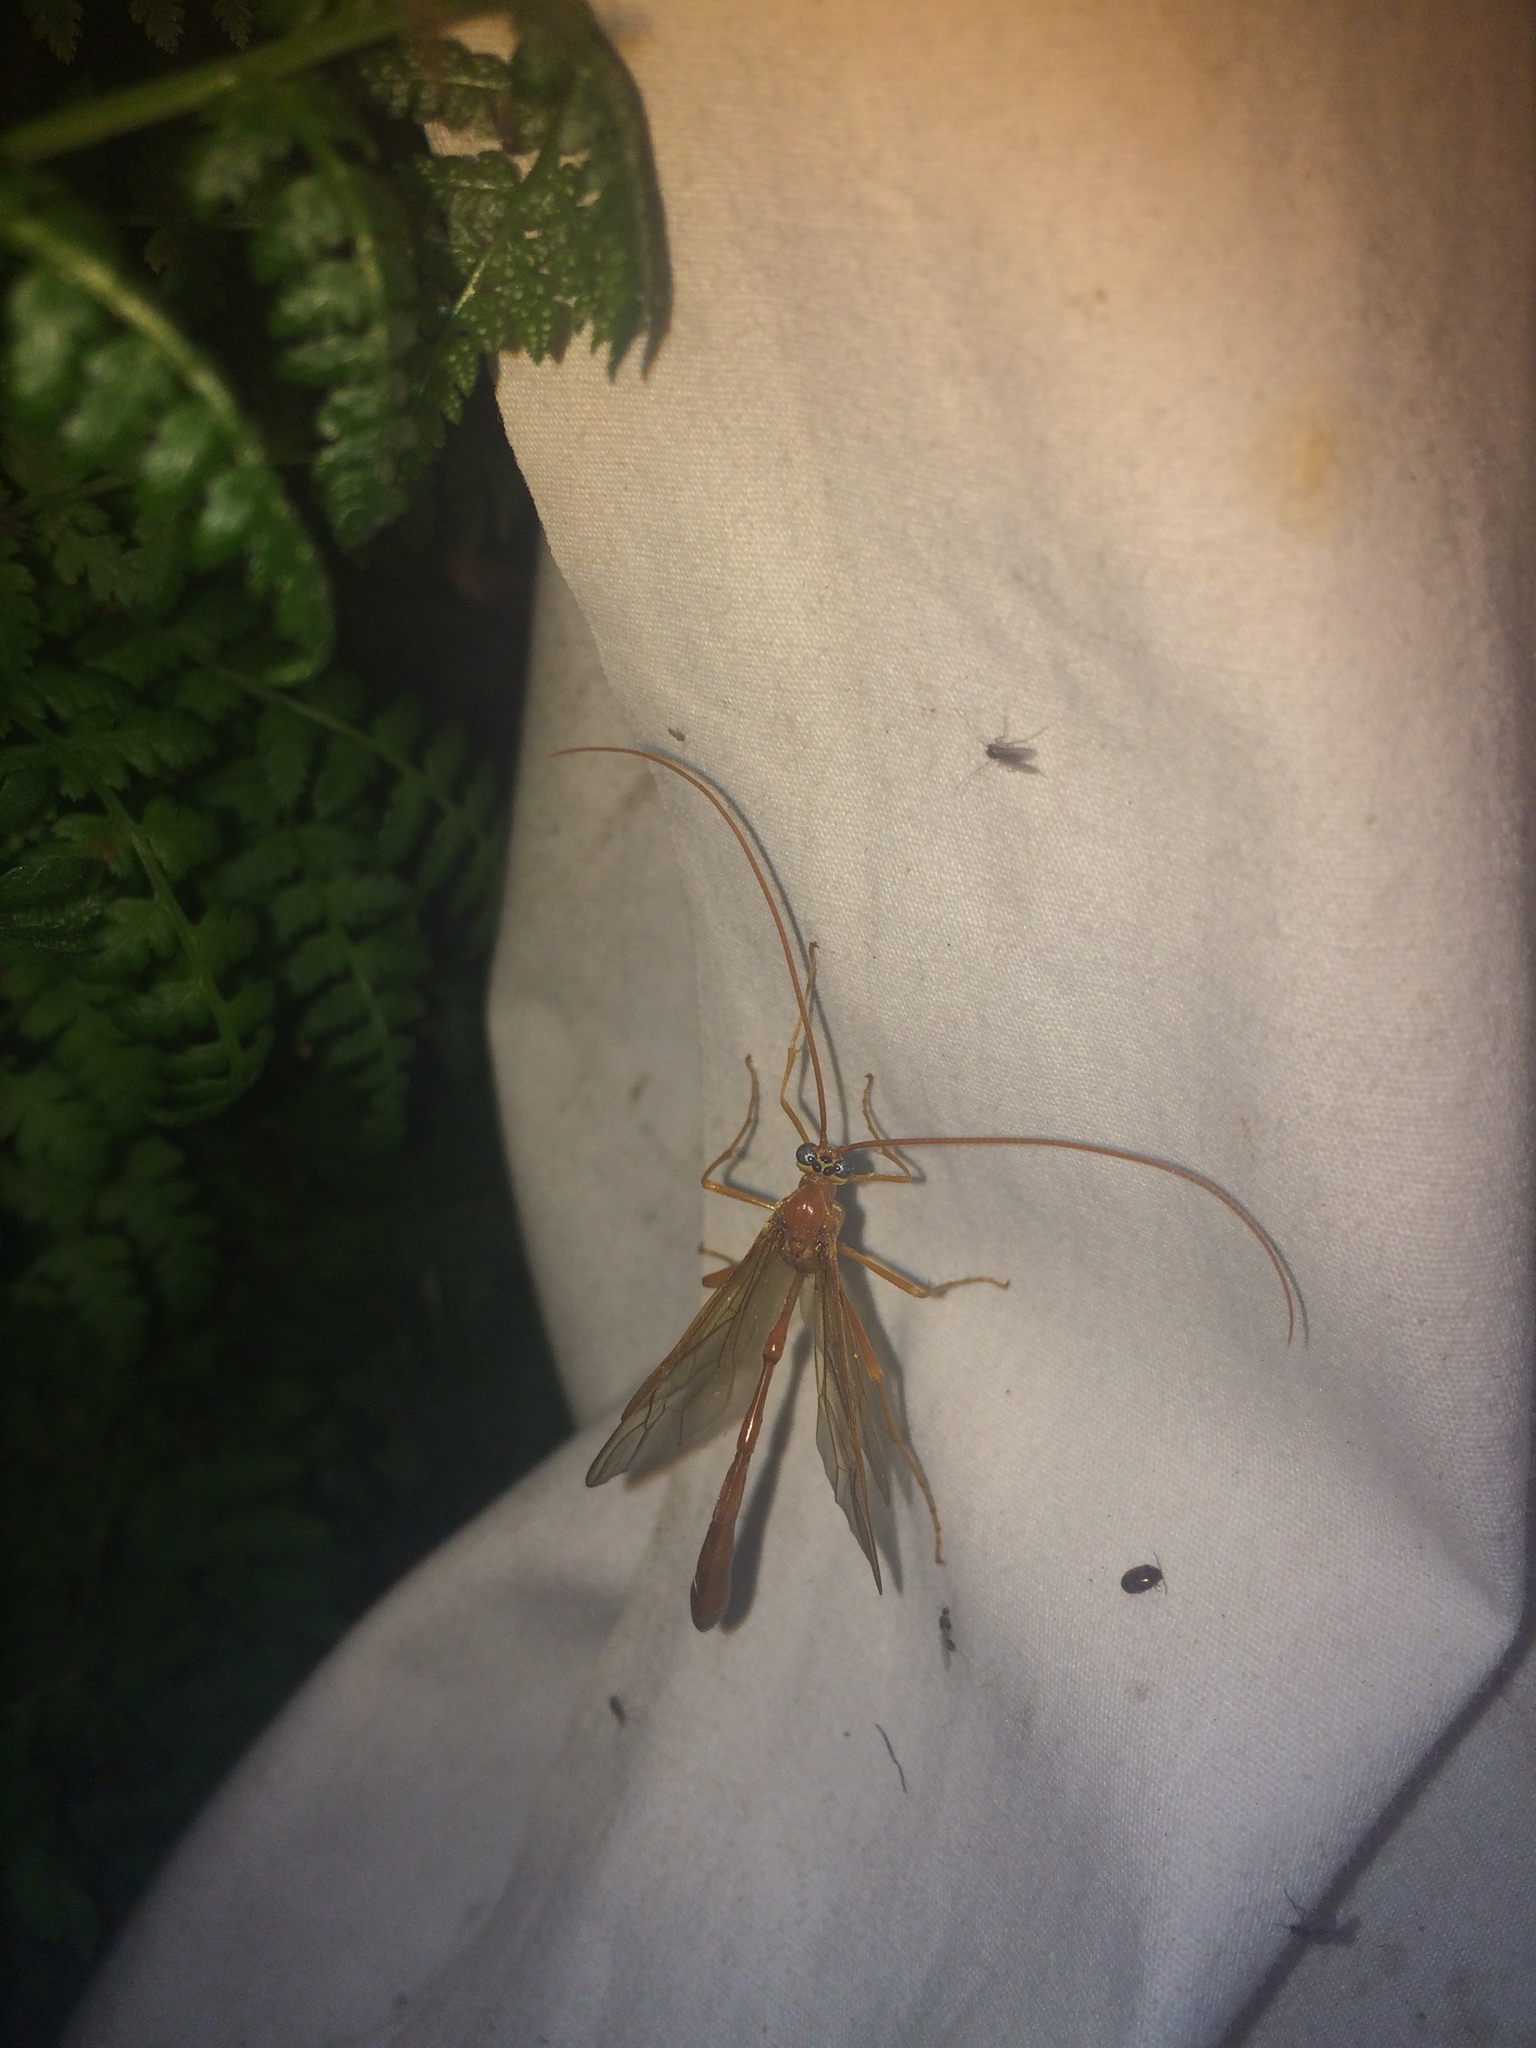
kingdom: Animalia
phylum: Arthropoda
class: Insecta
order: Hymenoptera
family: Ichneumonidae
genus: Enicospilus
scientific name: Enicospilus
